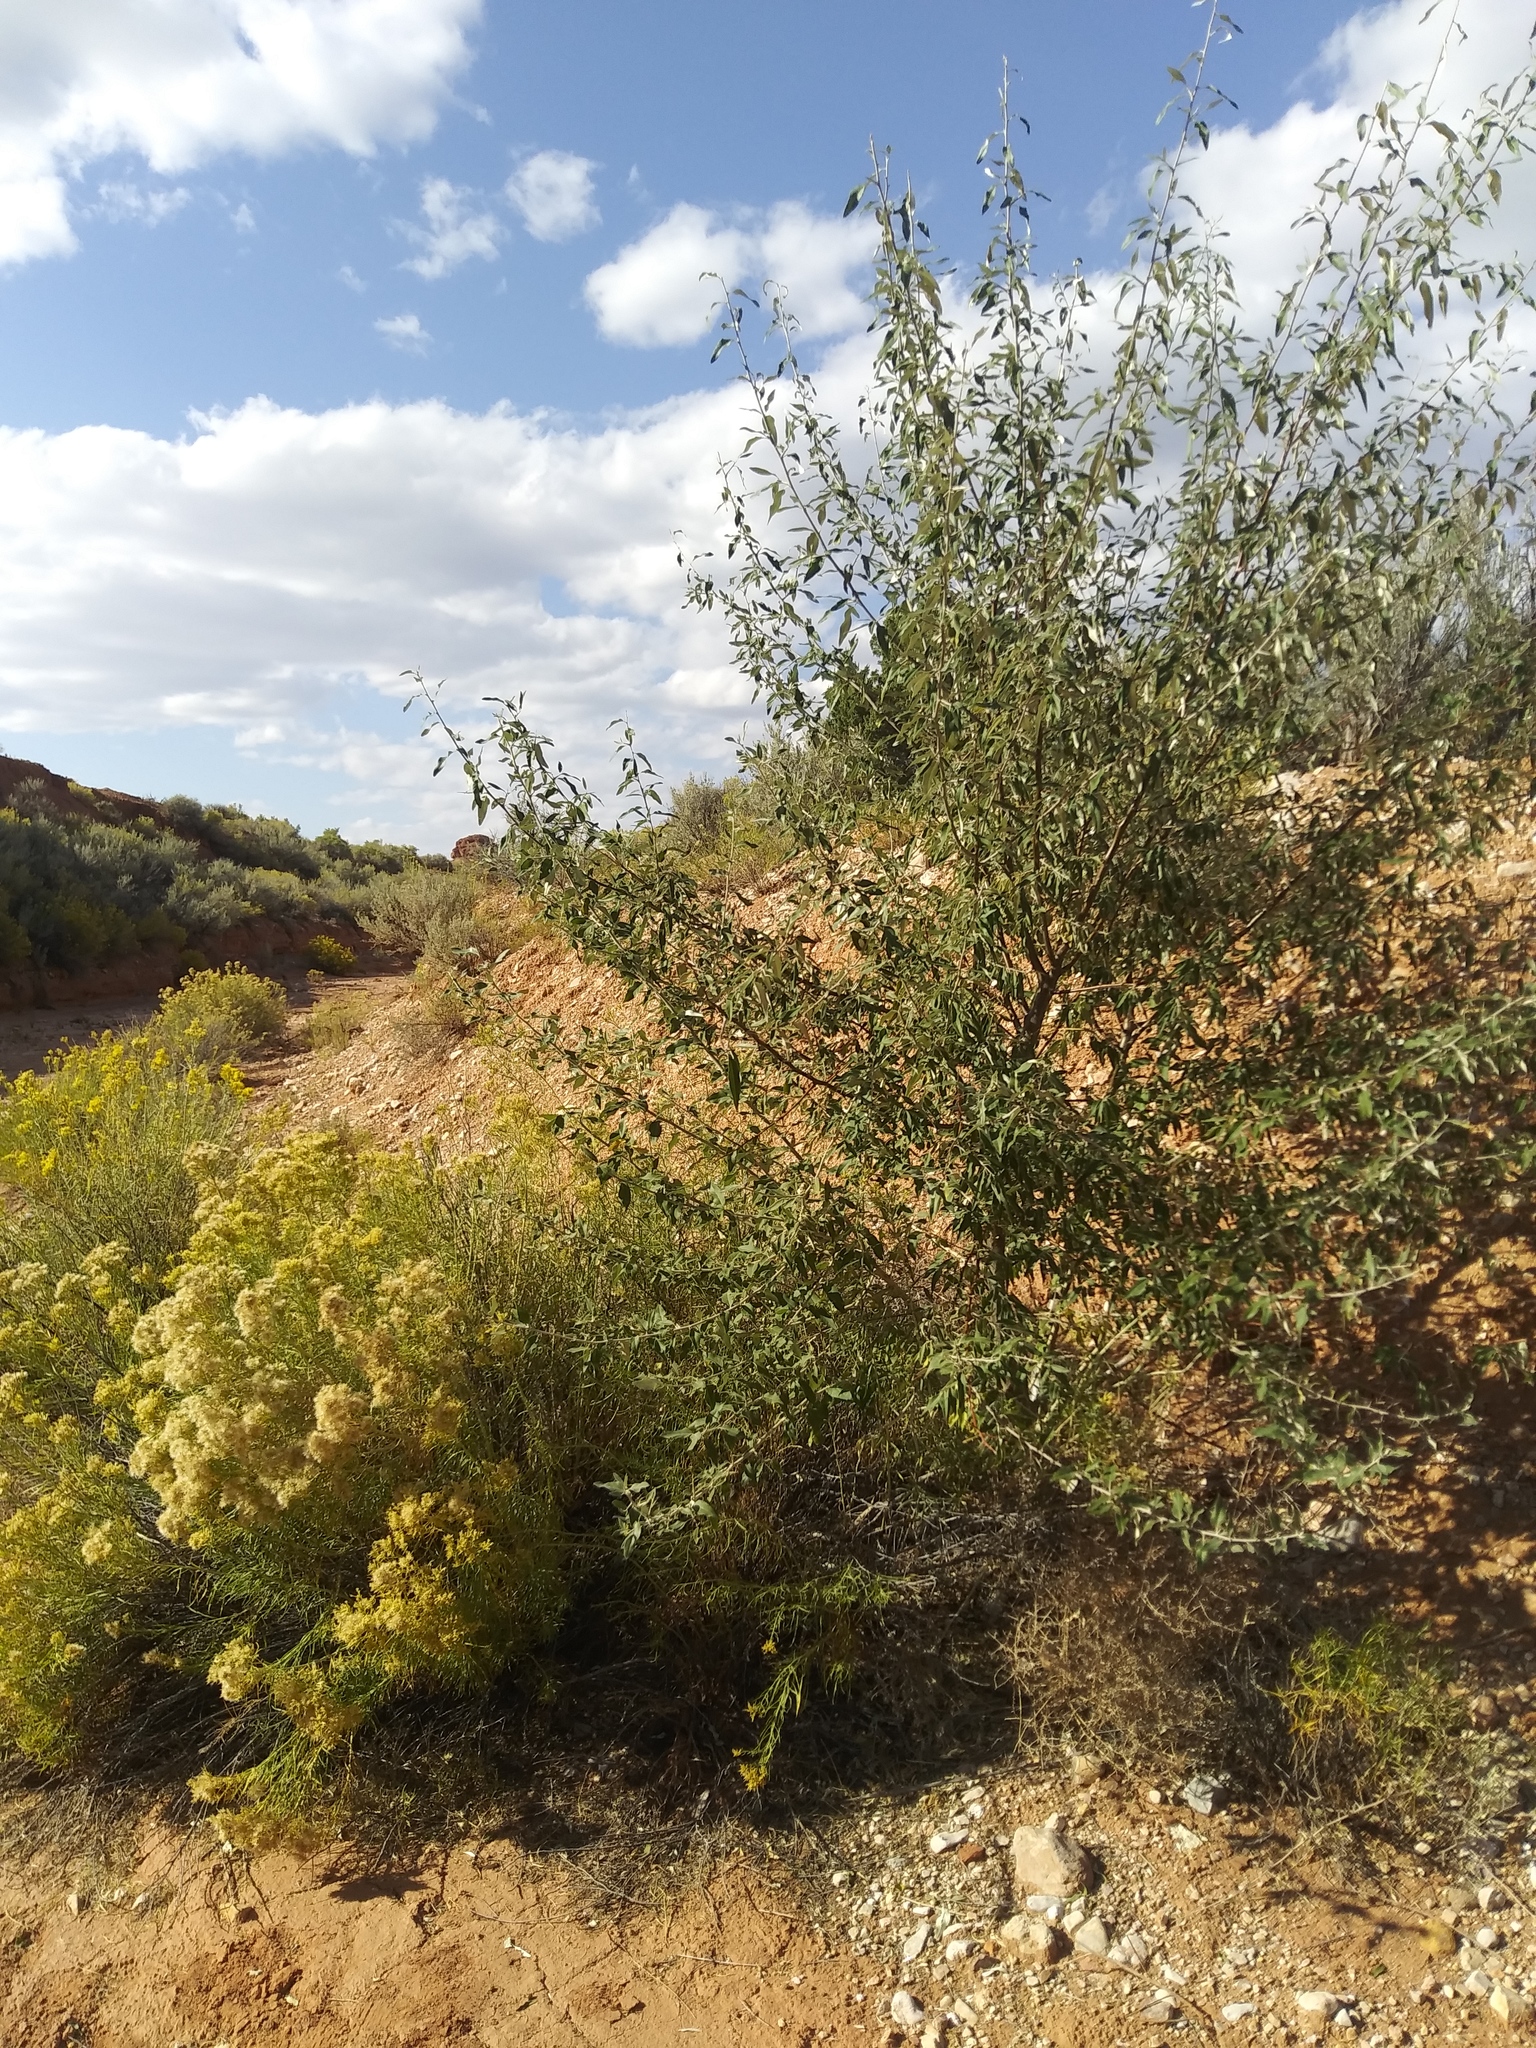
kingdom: Plantae
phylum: Tracheophyta
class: Magnoliopsida
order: Rosales
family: Elaeagnaceae
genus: Elaeagnus
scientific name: Elaeagnus angustifolia
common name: Russian olive
